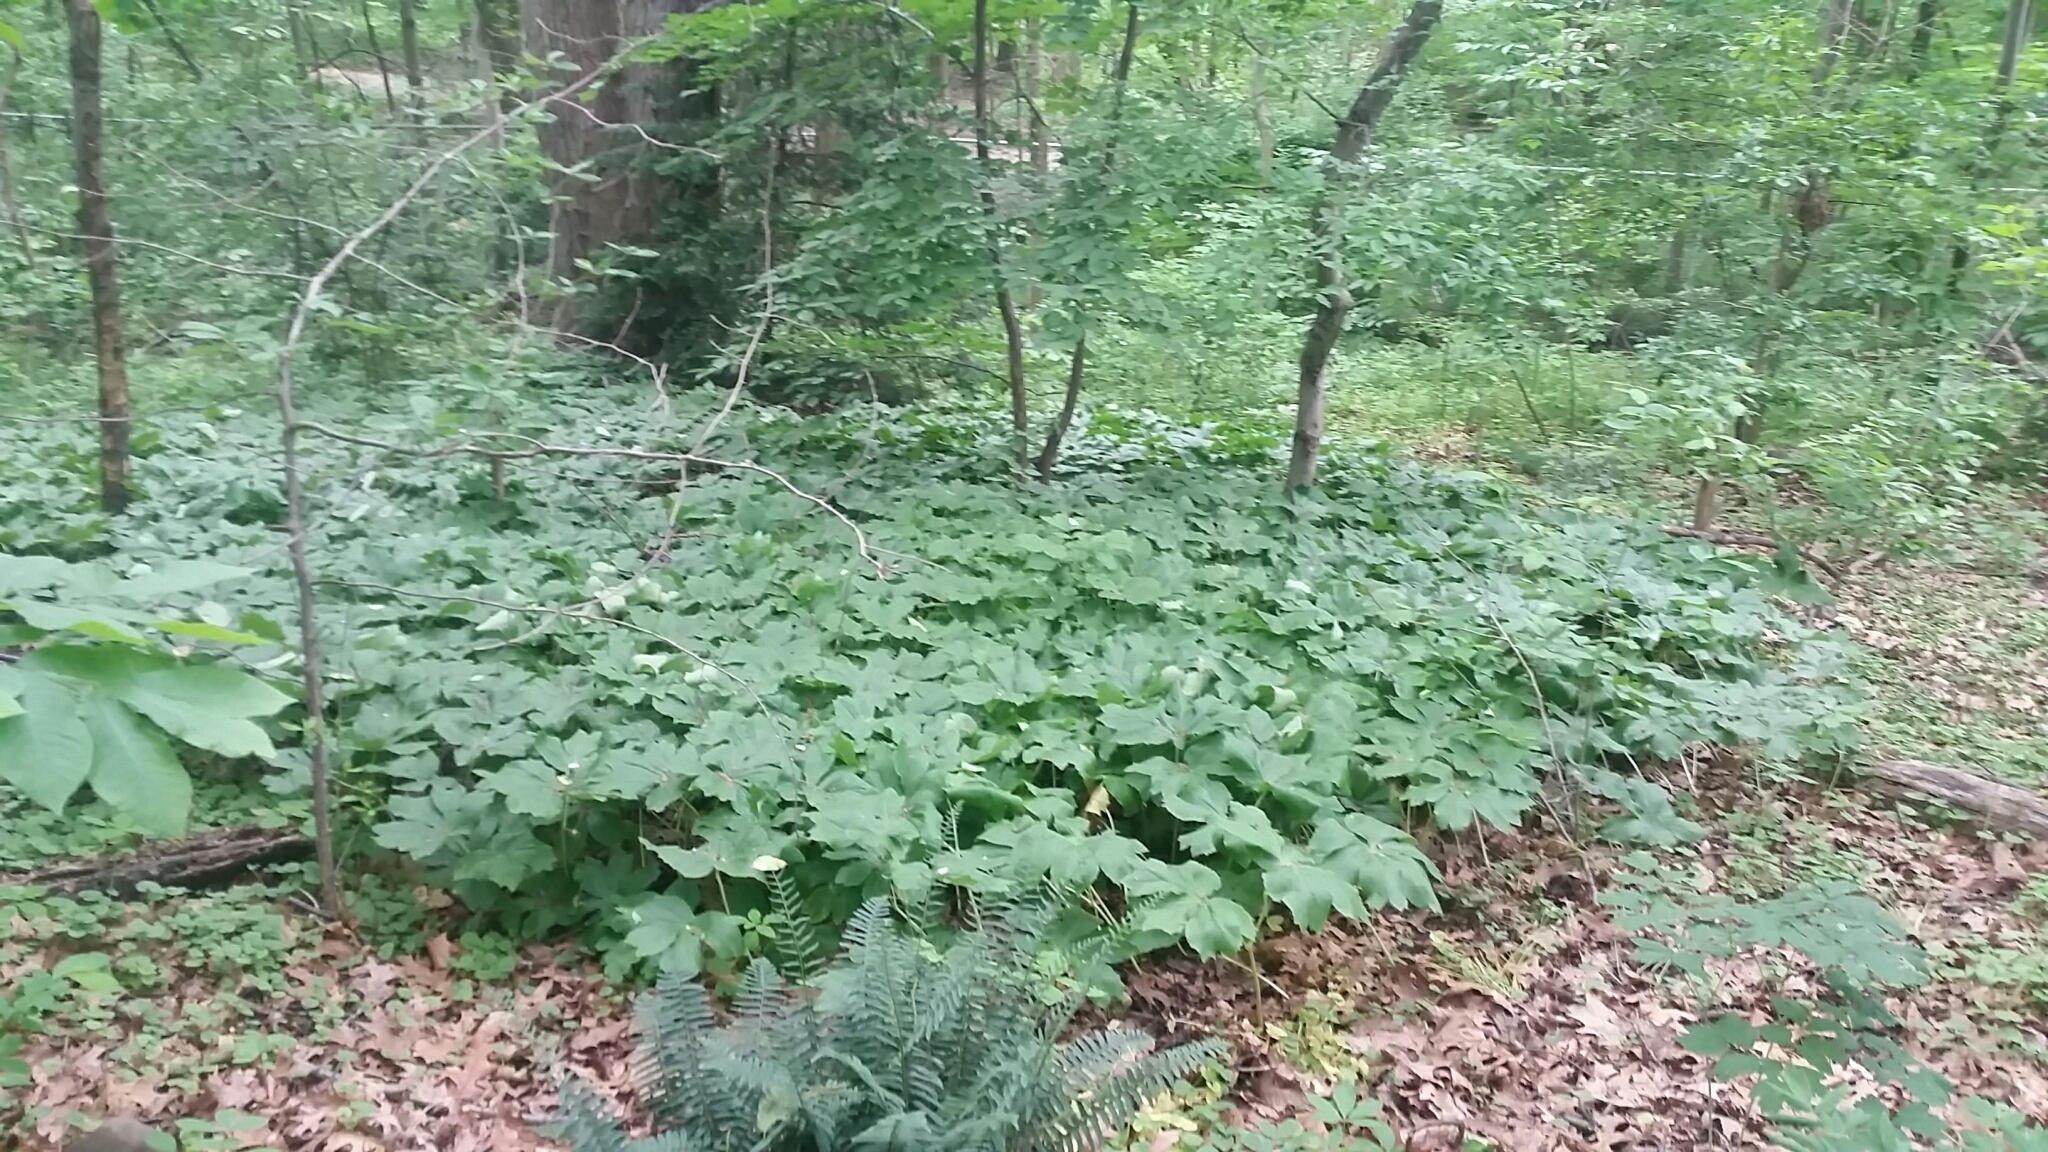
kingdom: Plantae
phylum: Tracheophyta
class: Magnoliopsida
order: Ranunculales
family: Berberidaceae
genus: Podophyllum
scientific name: Podophyllum peltatum
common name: Wild mandrake
